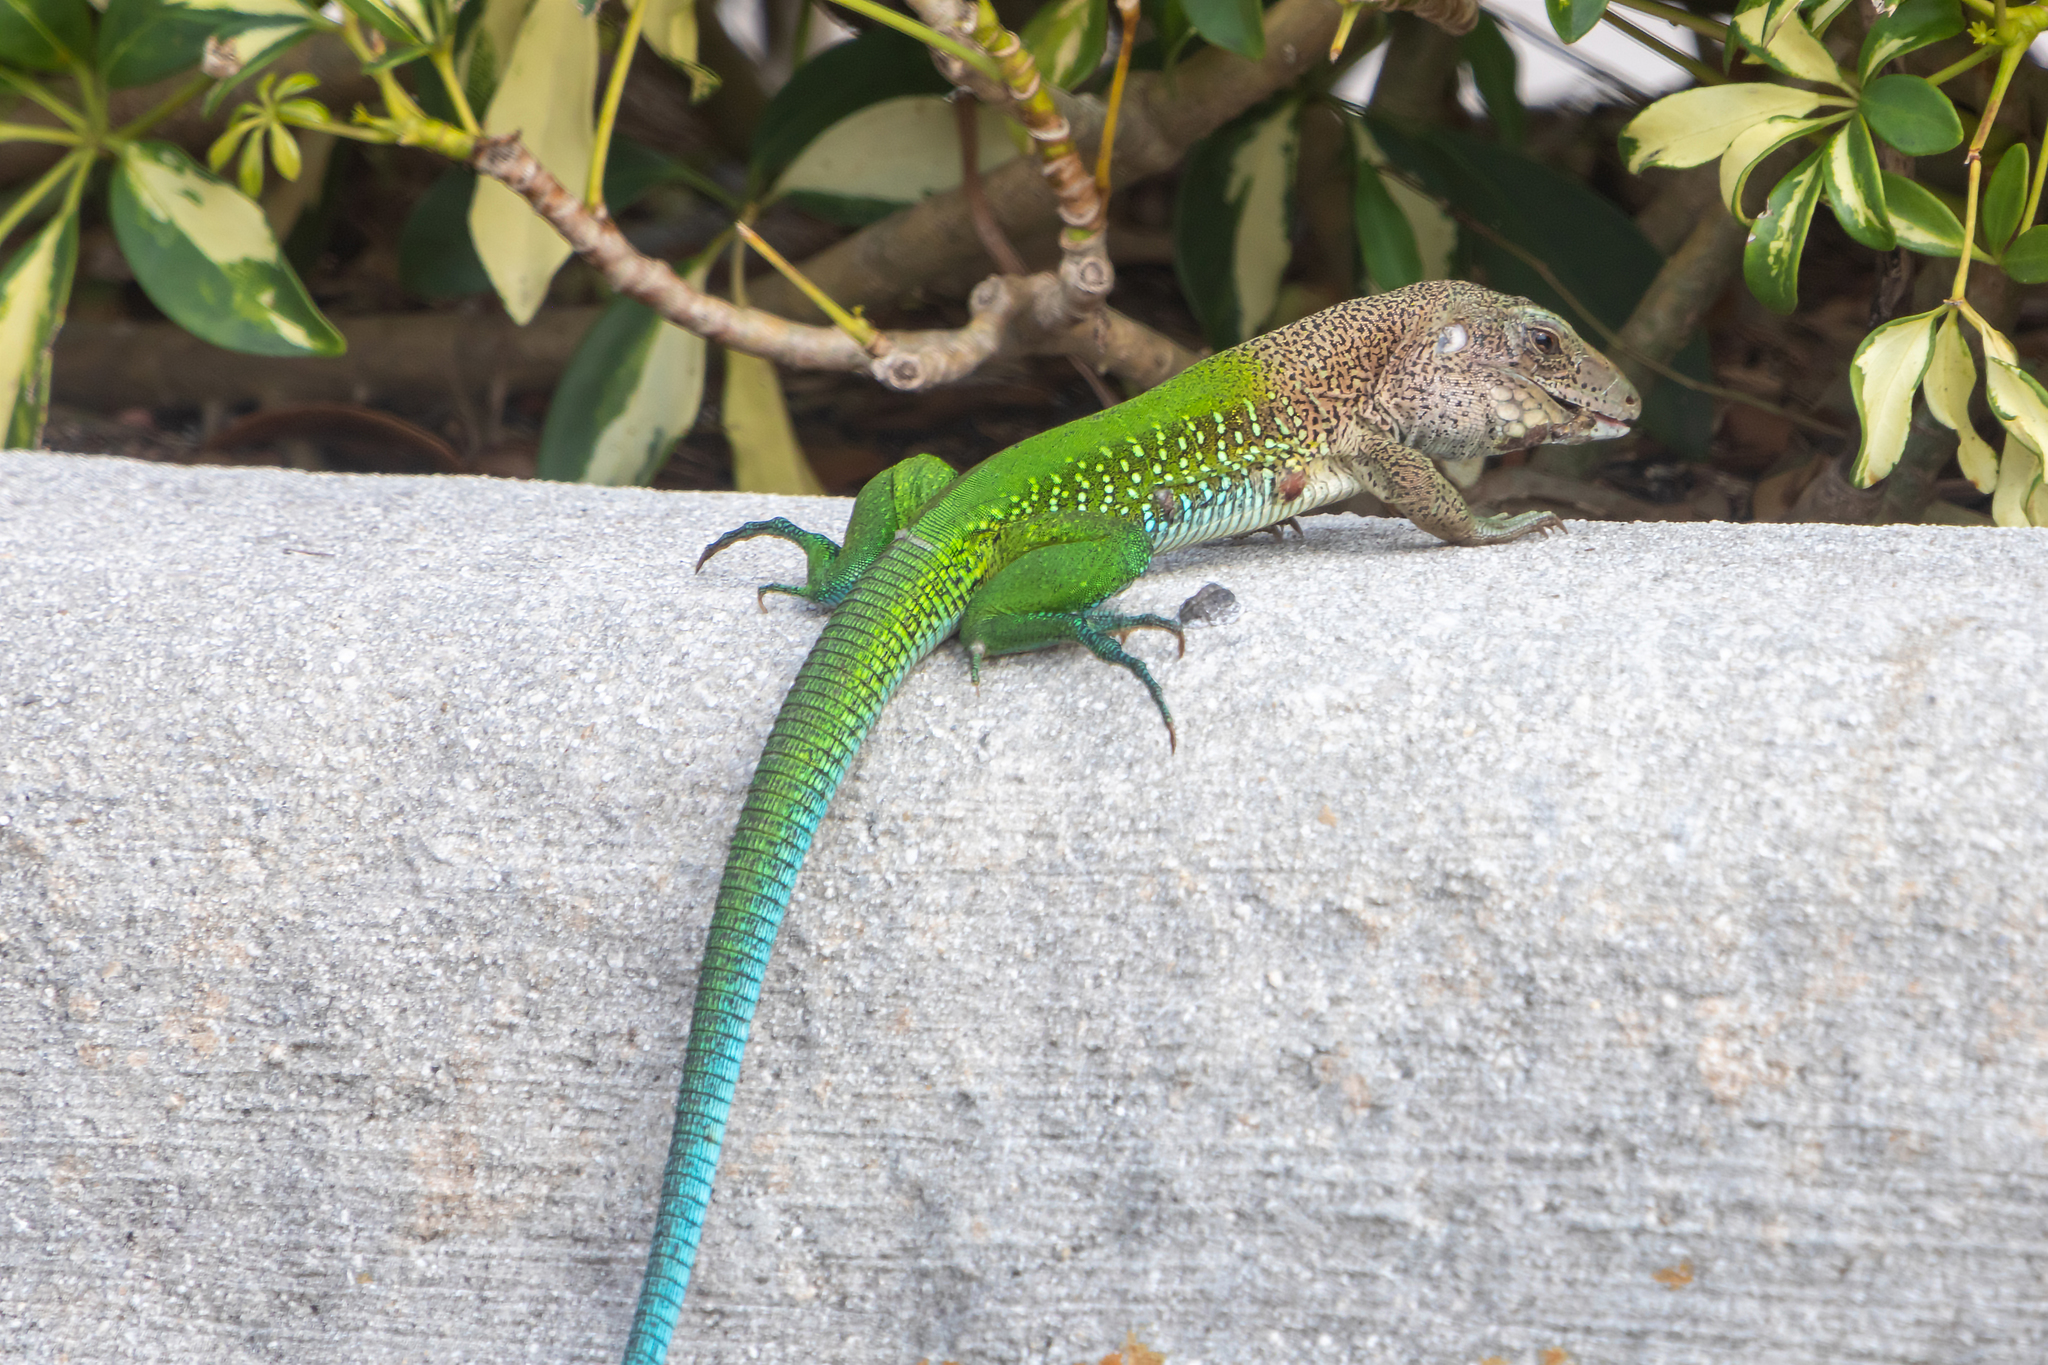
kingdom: Animalia
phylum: Chordata
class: Squamata
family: Teiidae
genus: Ameiva
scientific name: Ameiva ameiva
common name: Giant ameiva
